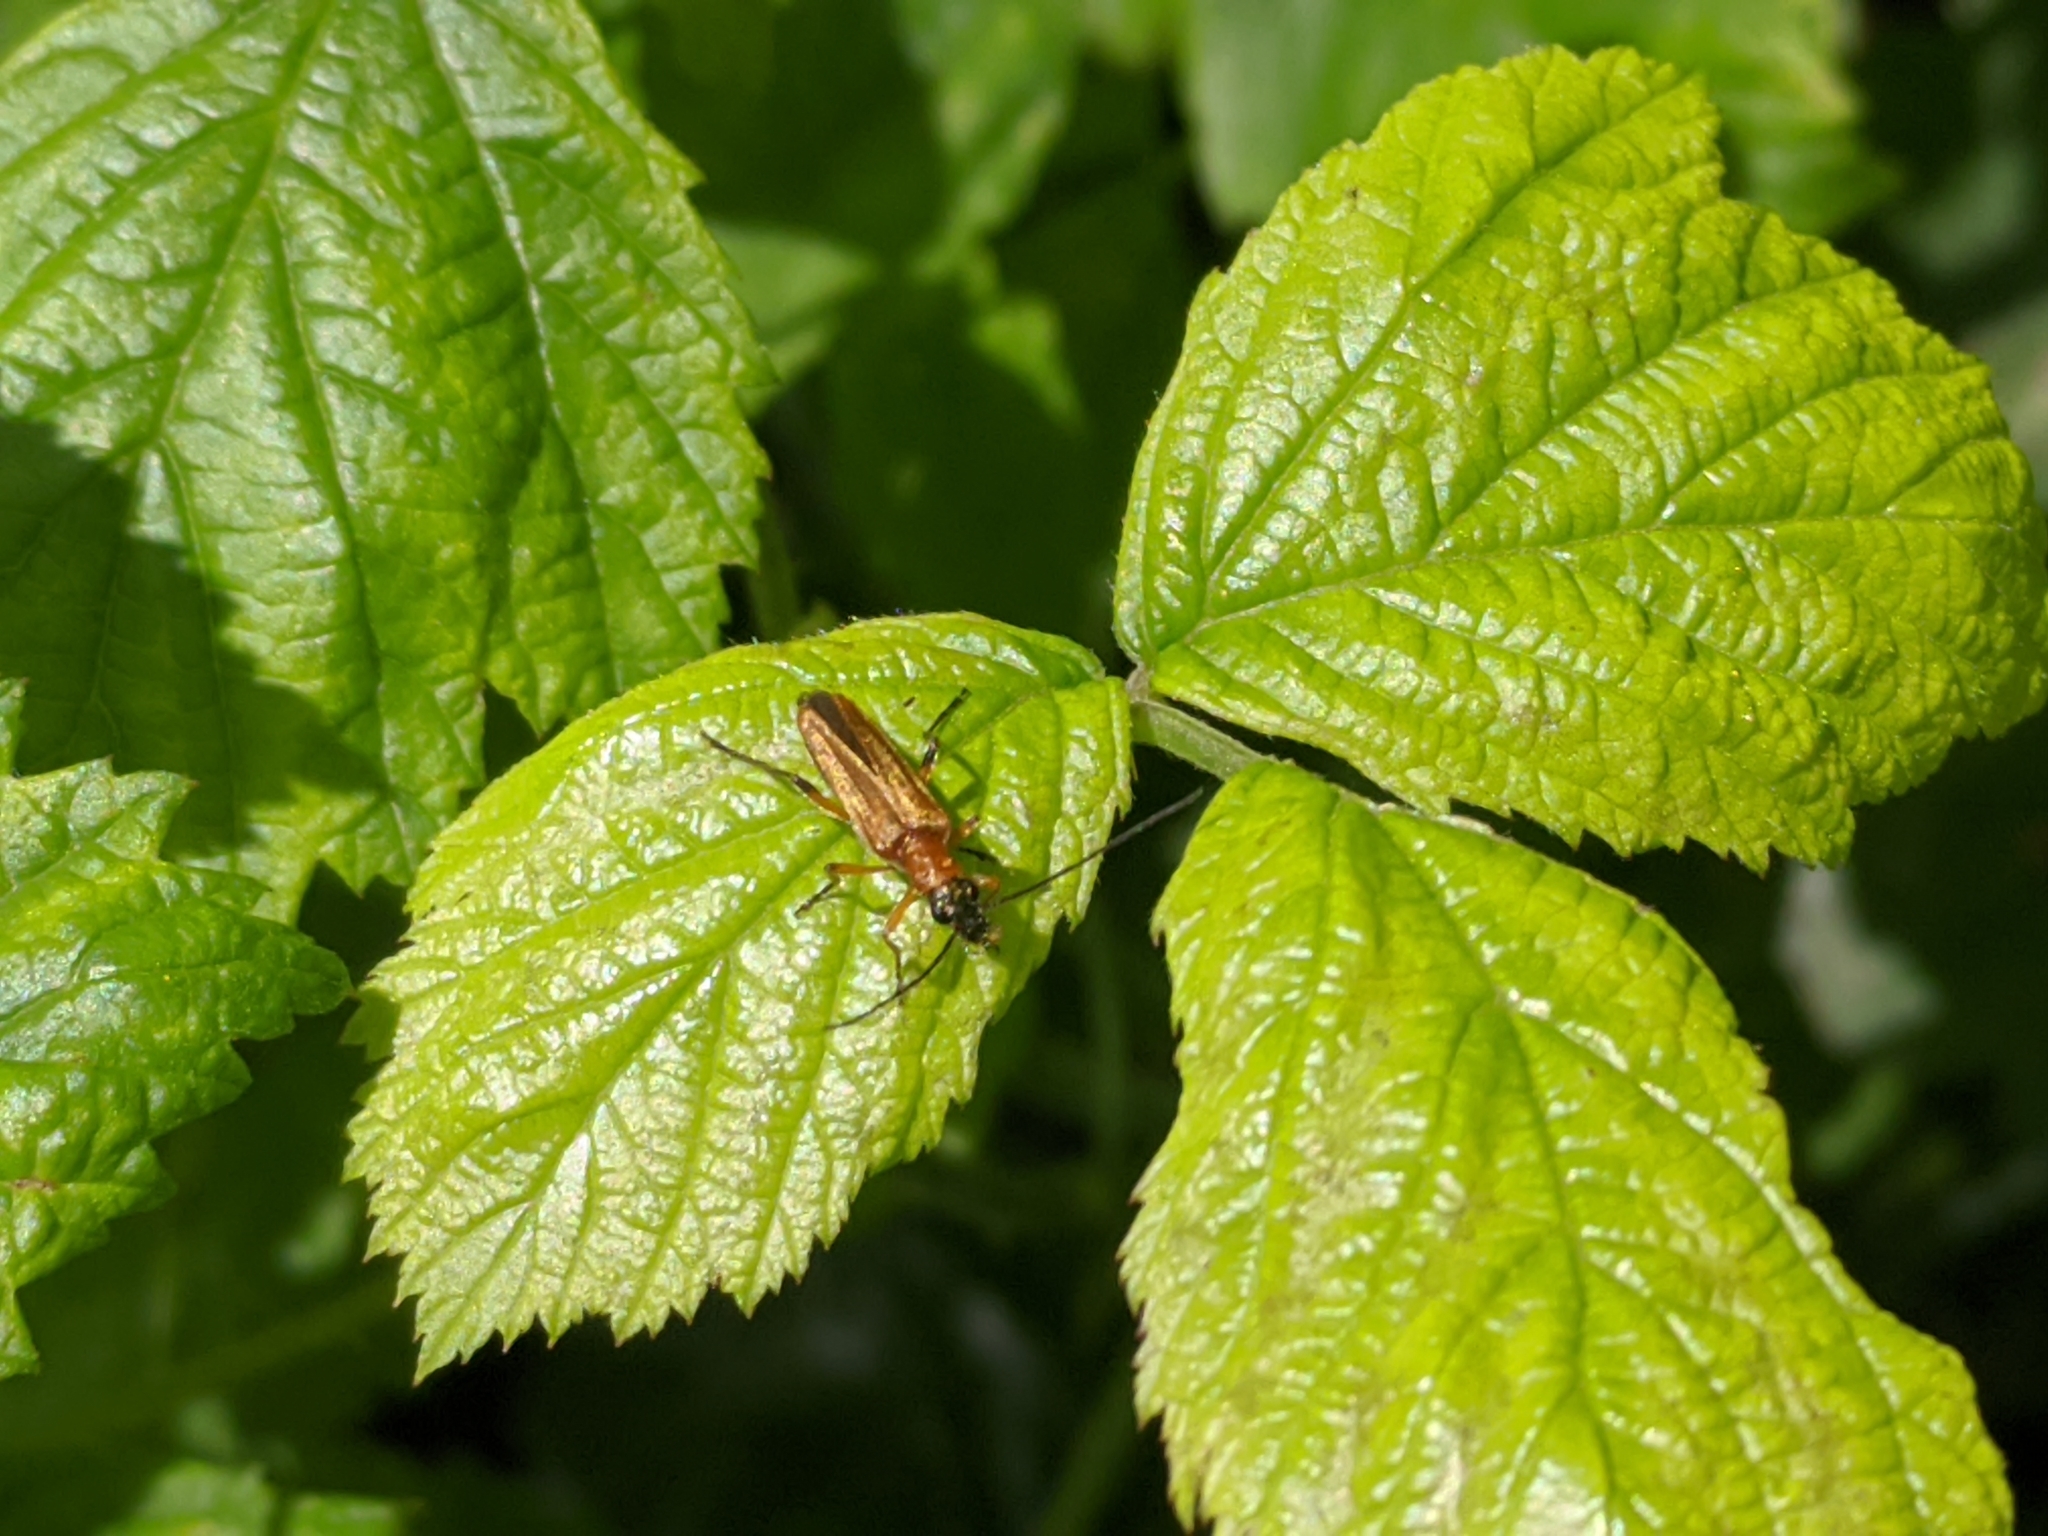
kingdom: Animalia
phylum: Arthropoda
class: Insecta
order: Coleoptera
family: Oedemeridae
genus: Oedemera
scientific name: Oedemera podagrariae
